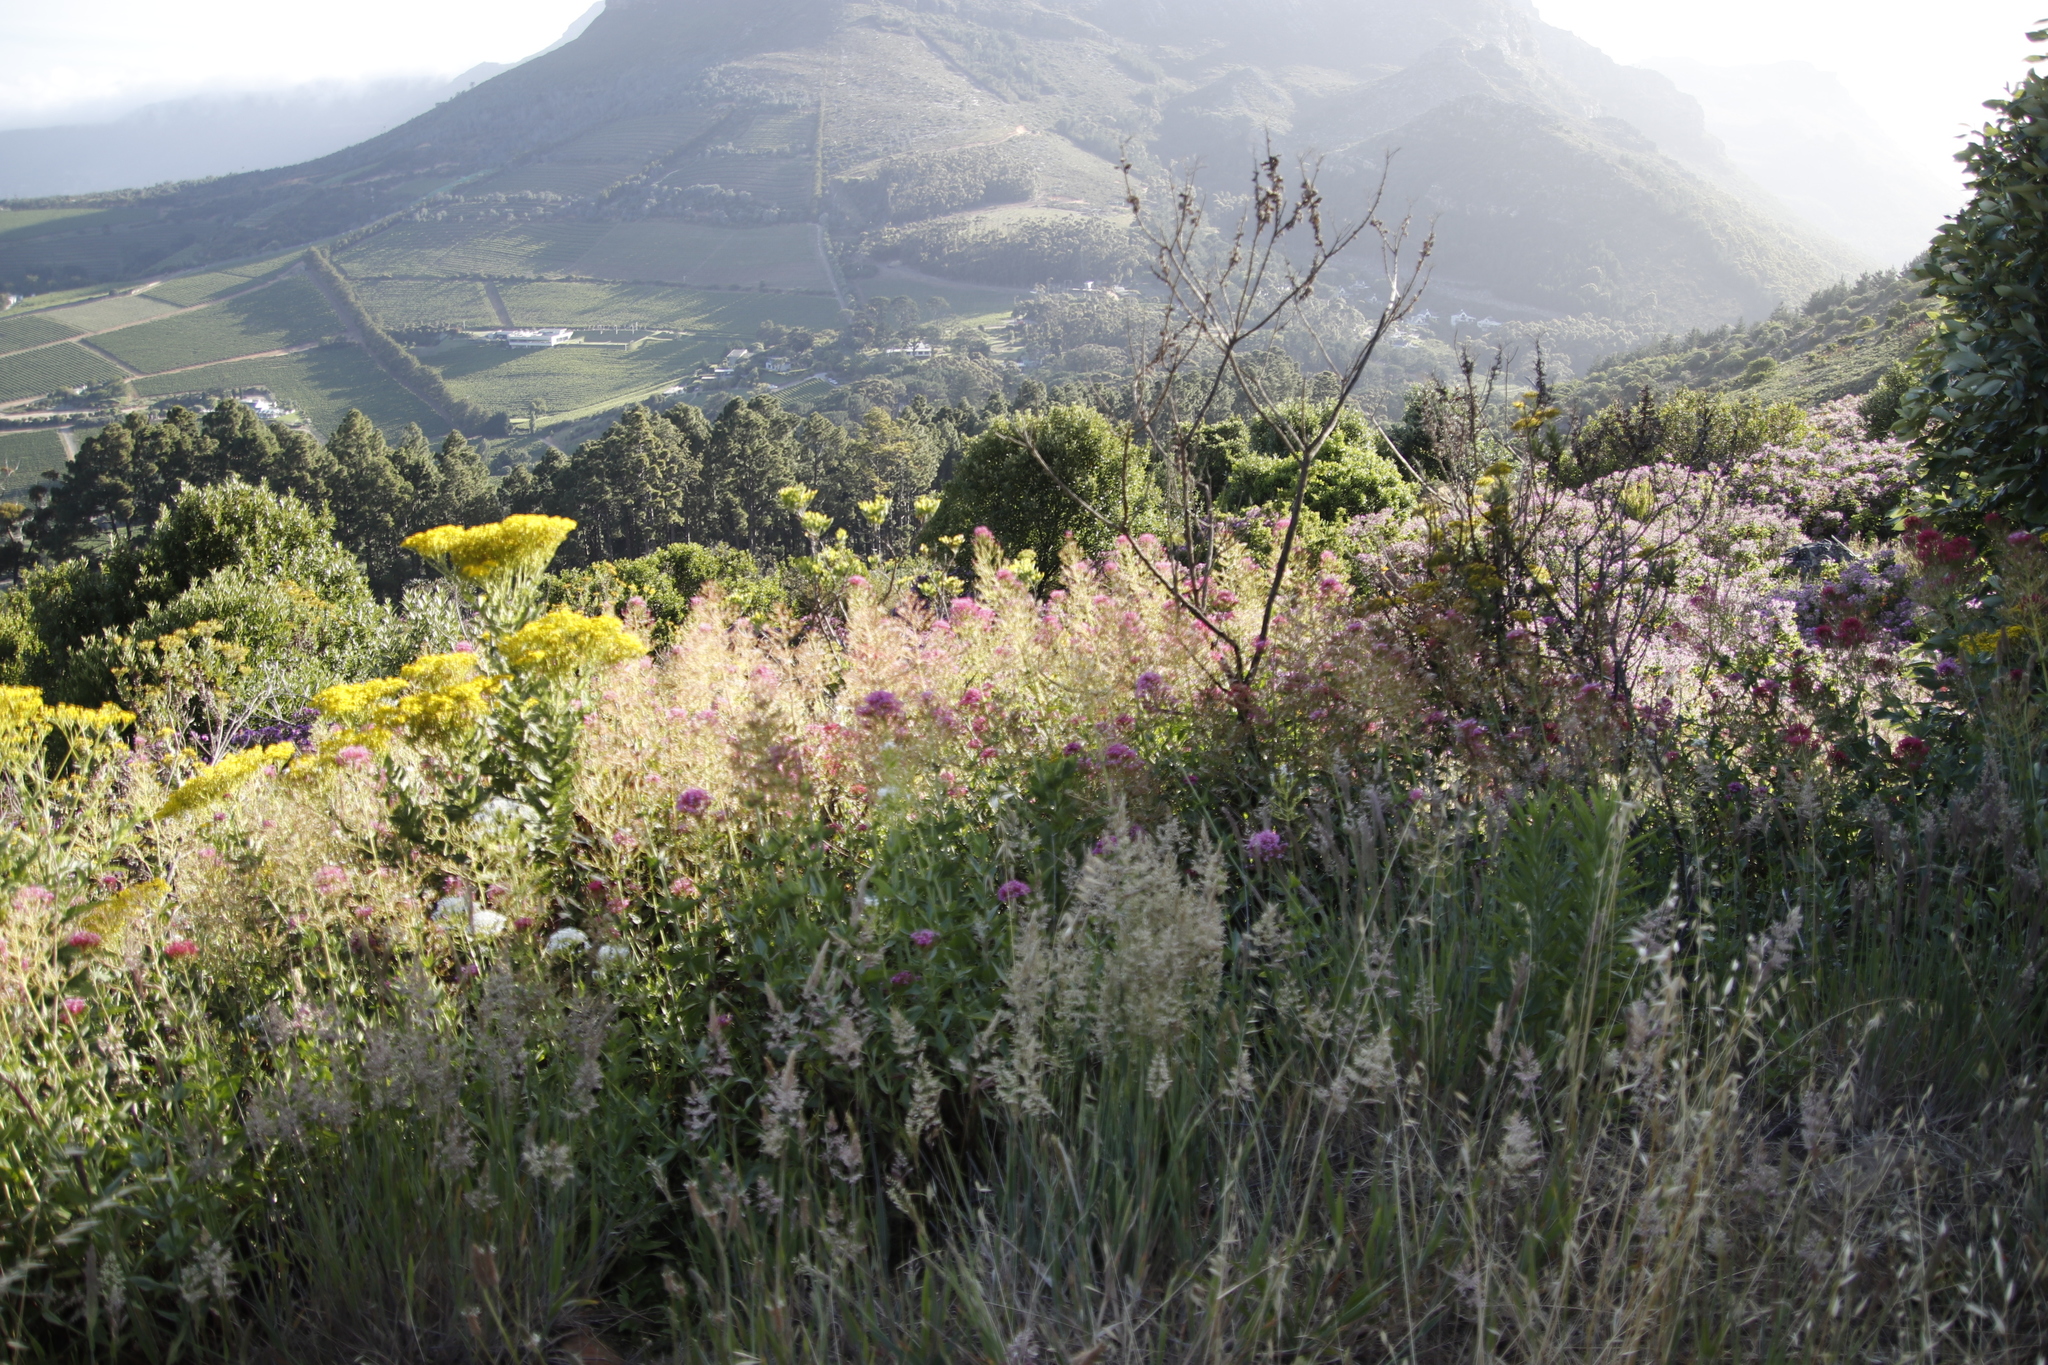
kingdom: Plantae
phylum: Tracheophyta
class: Magnoliopsida
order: Dipsacales
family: Caprifoliaceae
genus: Centranthus
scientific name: Centranthus ruber
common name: Red valerian
